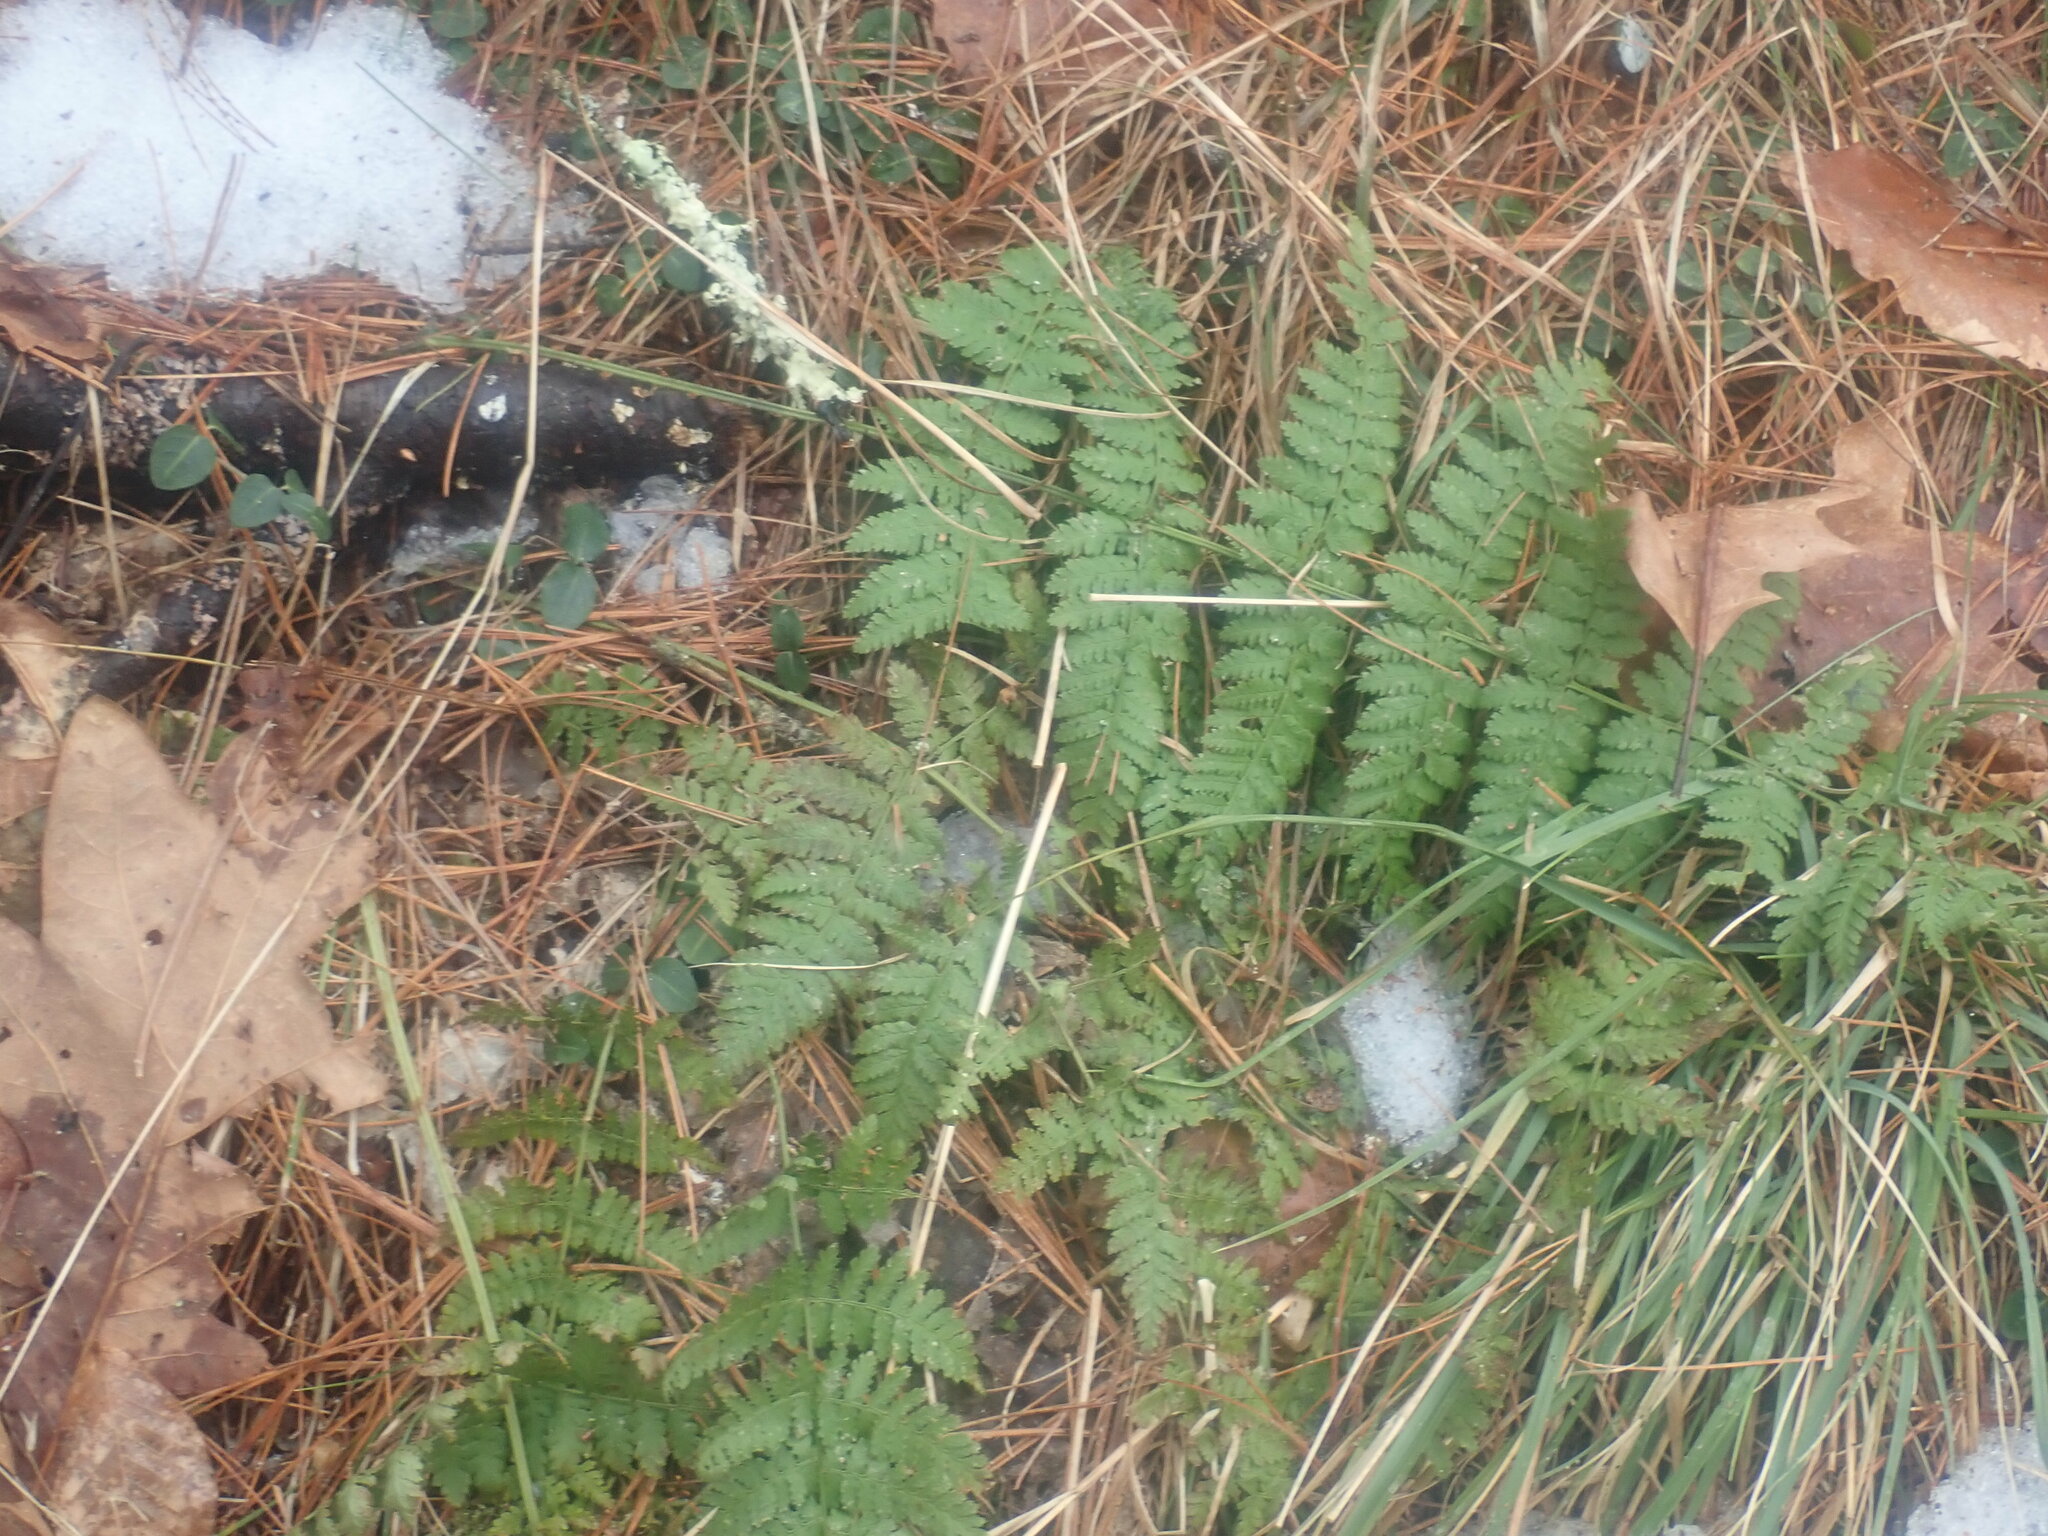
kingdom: Plantae
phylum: Tracheophyta
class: Polypodiopsida
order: Polypodiales
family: Dryopteridaceae
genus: Dryopteris
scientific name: Dryopteris intermedia
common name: Evergreen wood fern
